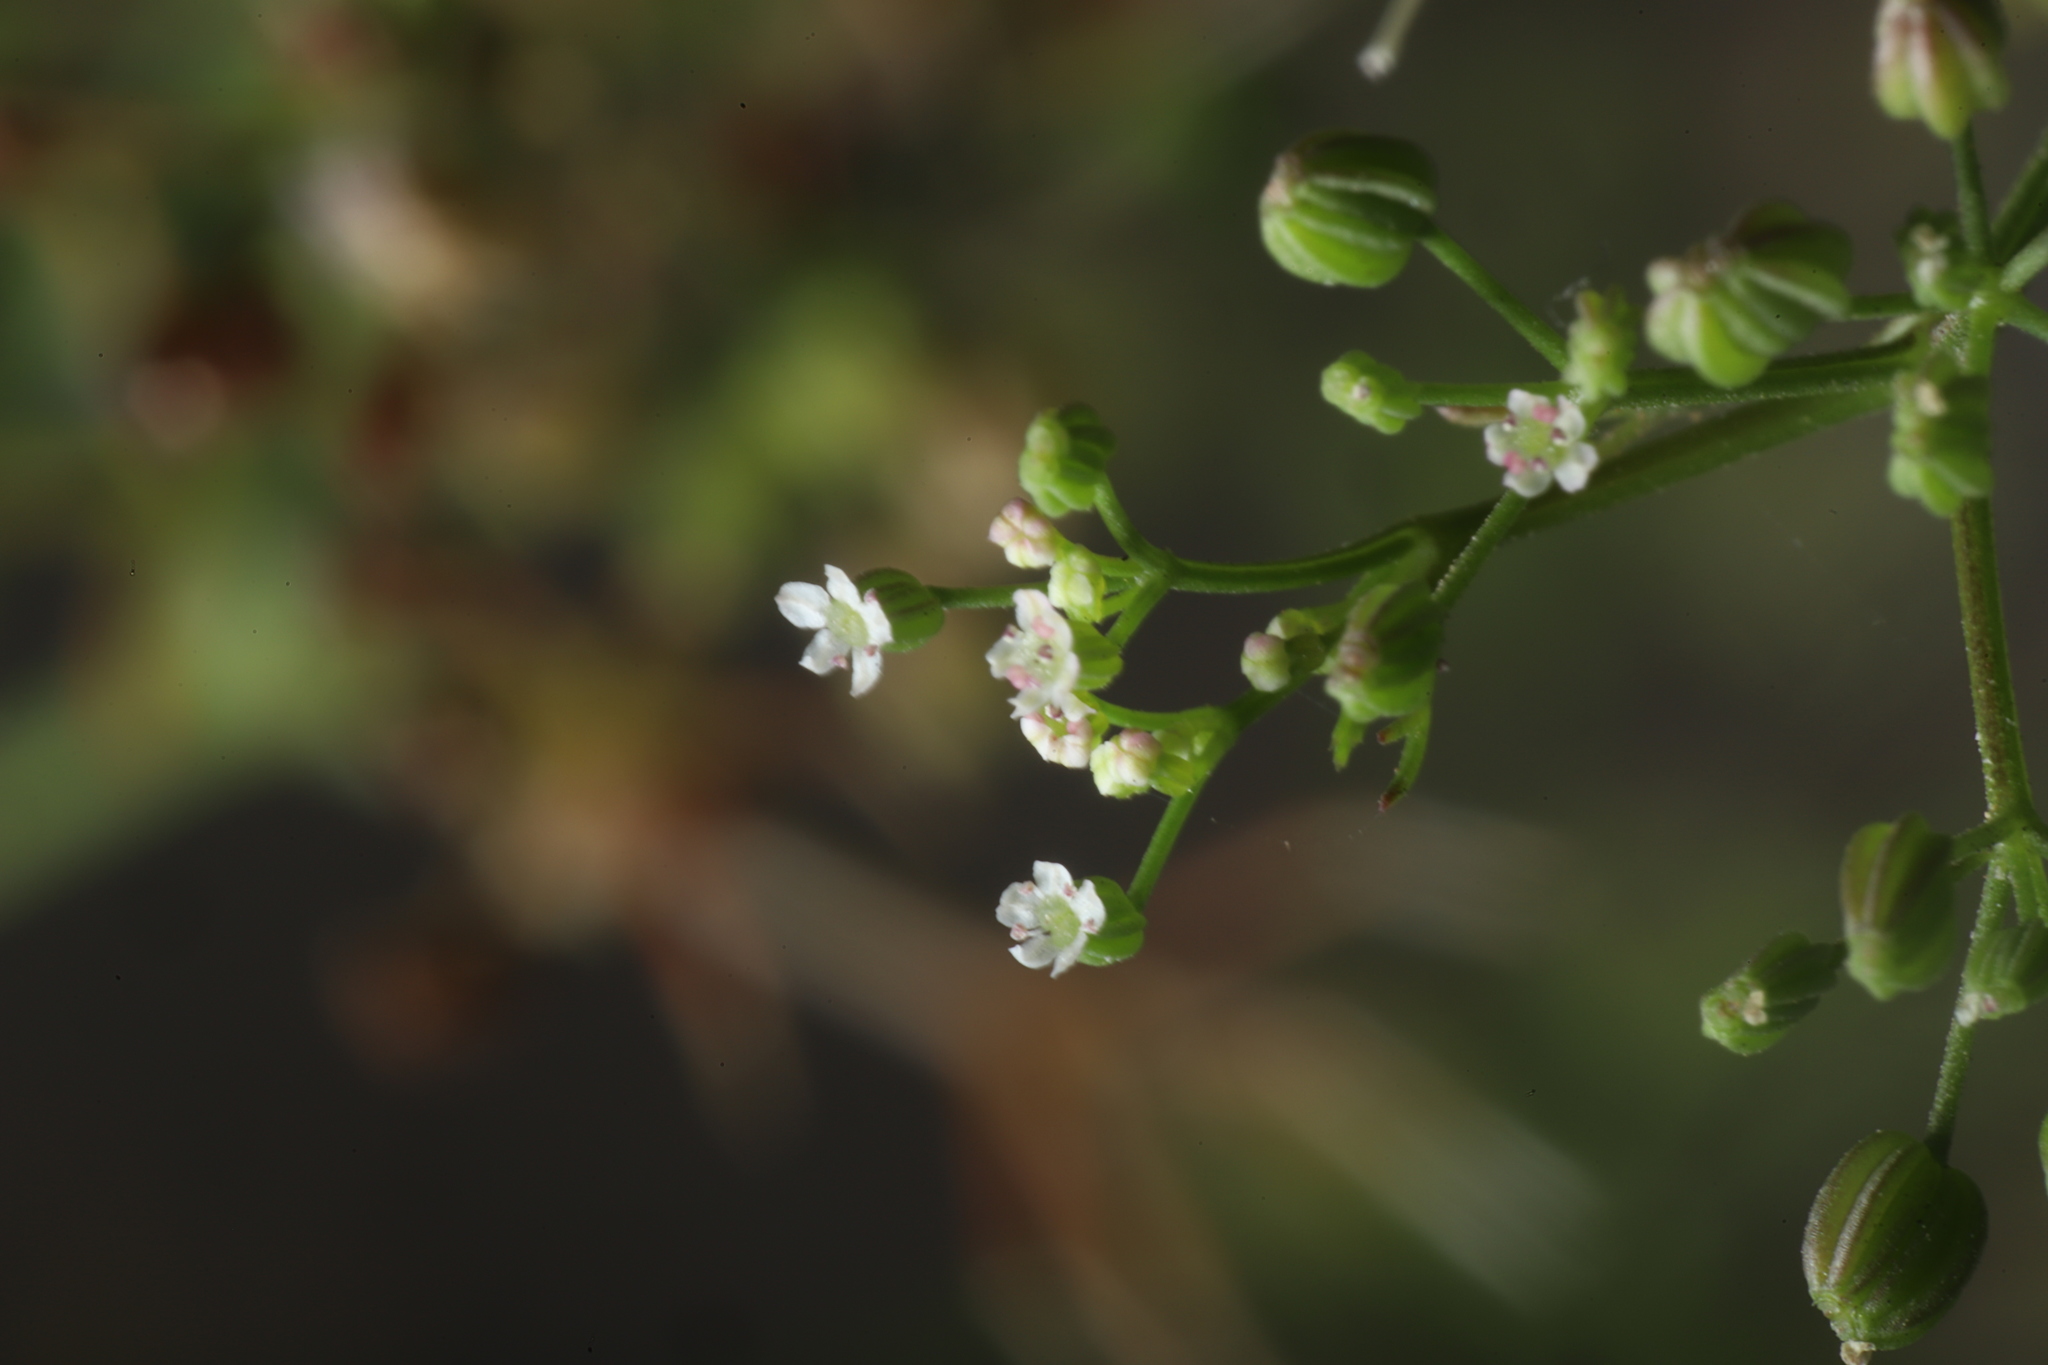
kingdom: Plantae
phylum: Tracheophyta
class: Magnoliopsida
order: Apiales
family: Apiaceae
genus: Cyclospermum
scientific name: Cyclospermum leptophyllum
